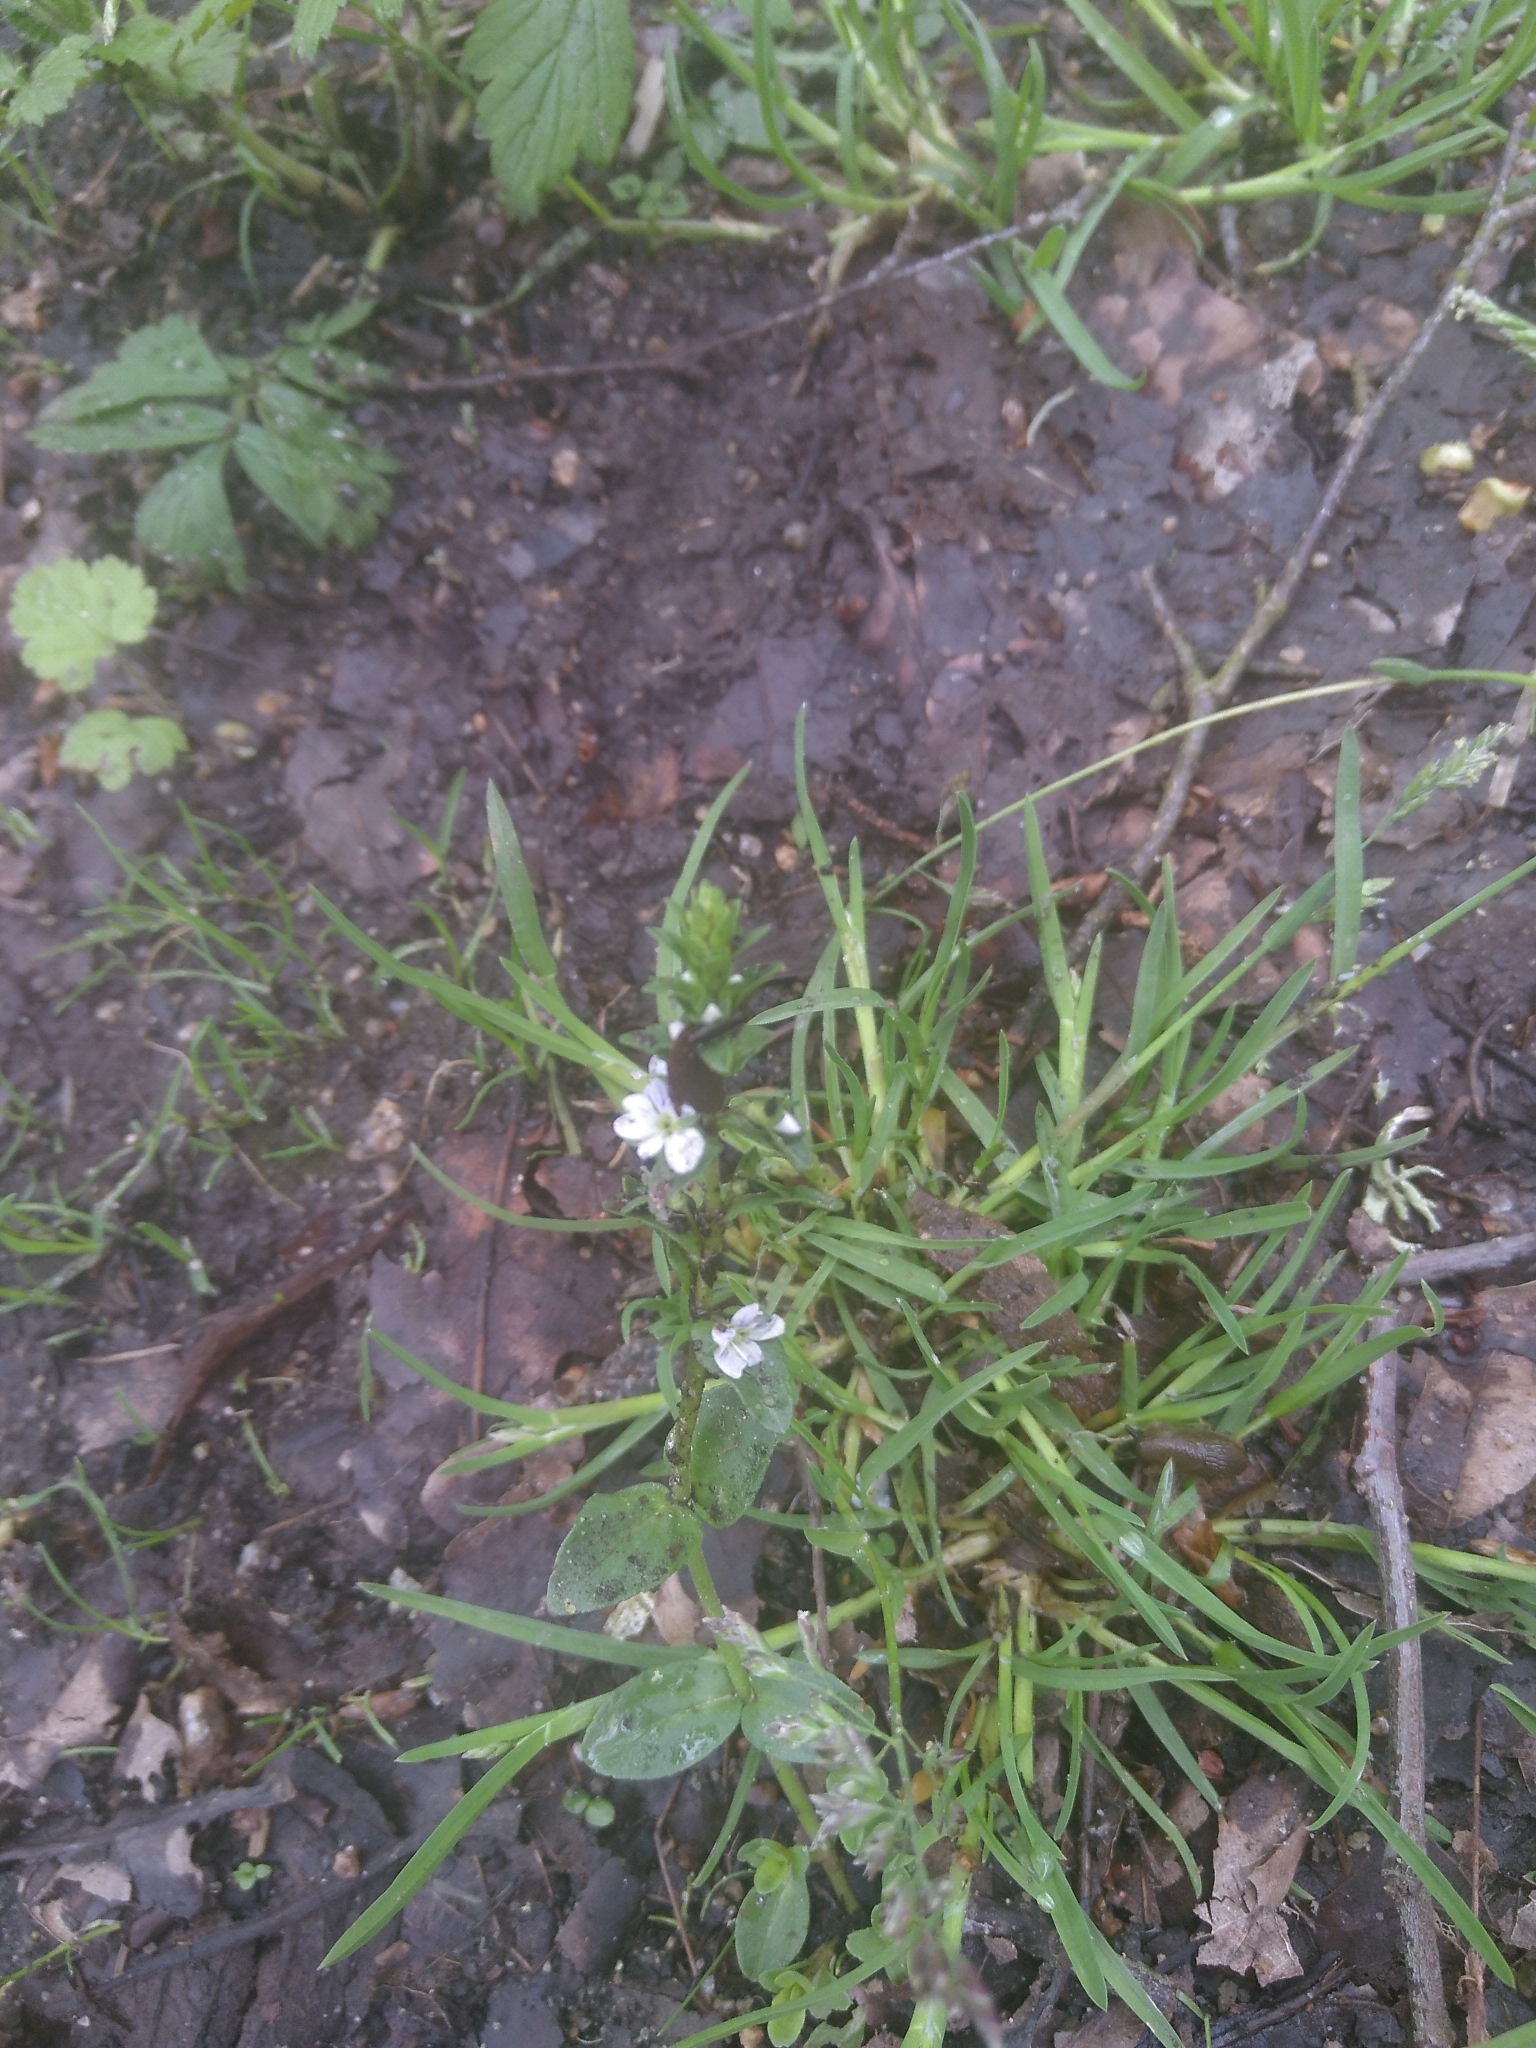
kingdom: Plantae
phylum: Tracheophyta
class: Magnoliopsida
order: Lamiales
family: Plantaginaceae
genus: Veronica
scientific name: Veronica serpyllifolia
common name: Thyme-leaved speedwell
